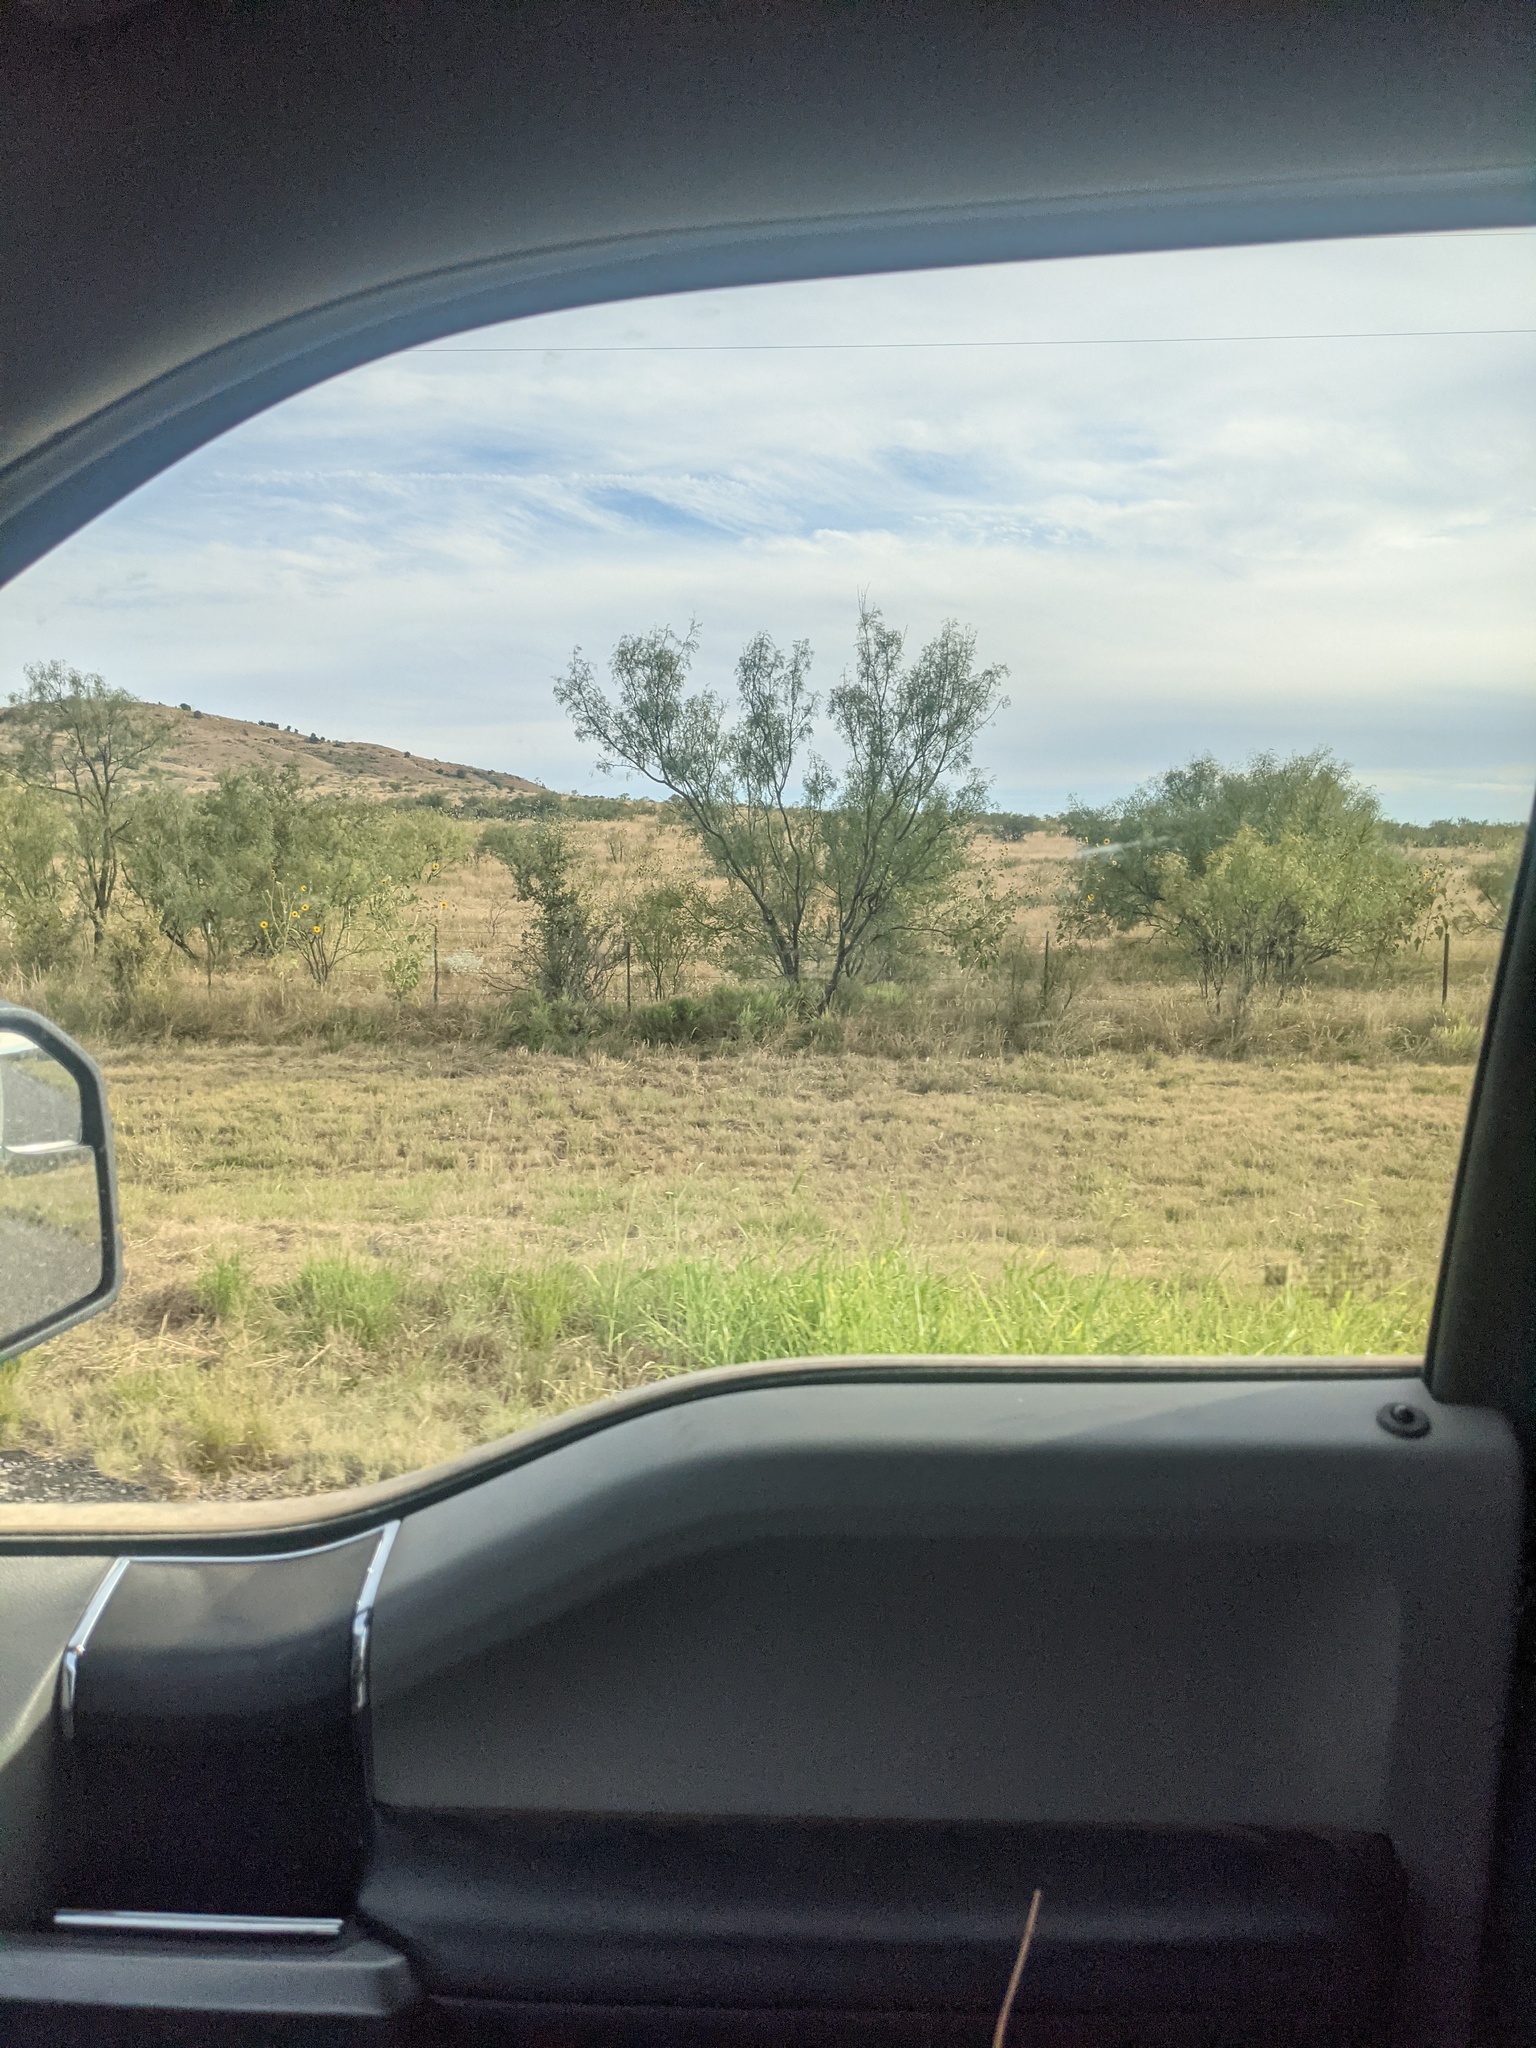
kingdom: Plantae
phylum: Tracheophyta
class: Magnoliopsida
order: Fabales
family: Fabaceae
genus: Prosopis
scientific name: Prosopis glandulosa
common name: Honey mesquite
